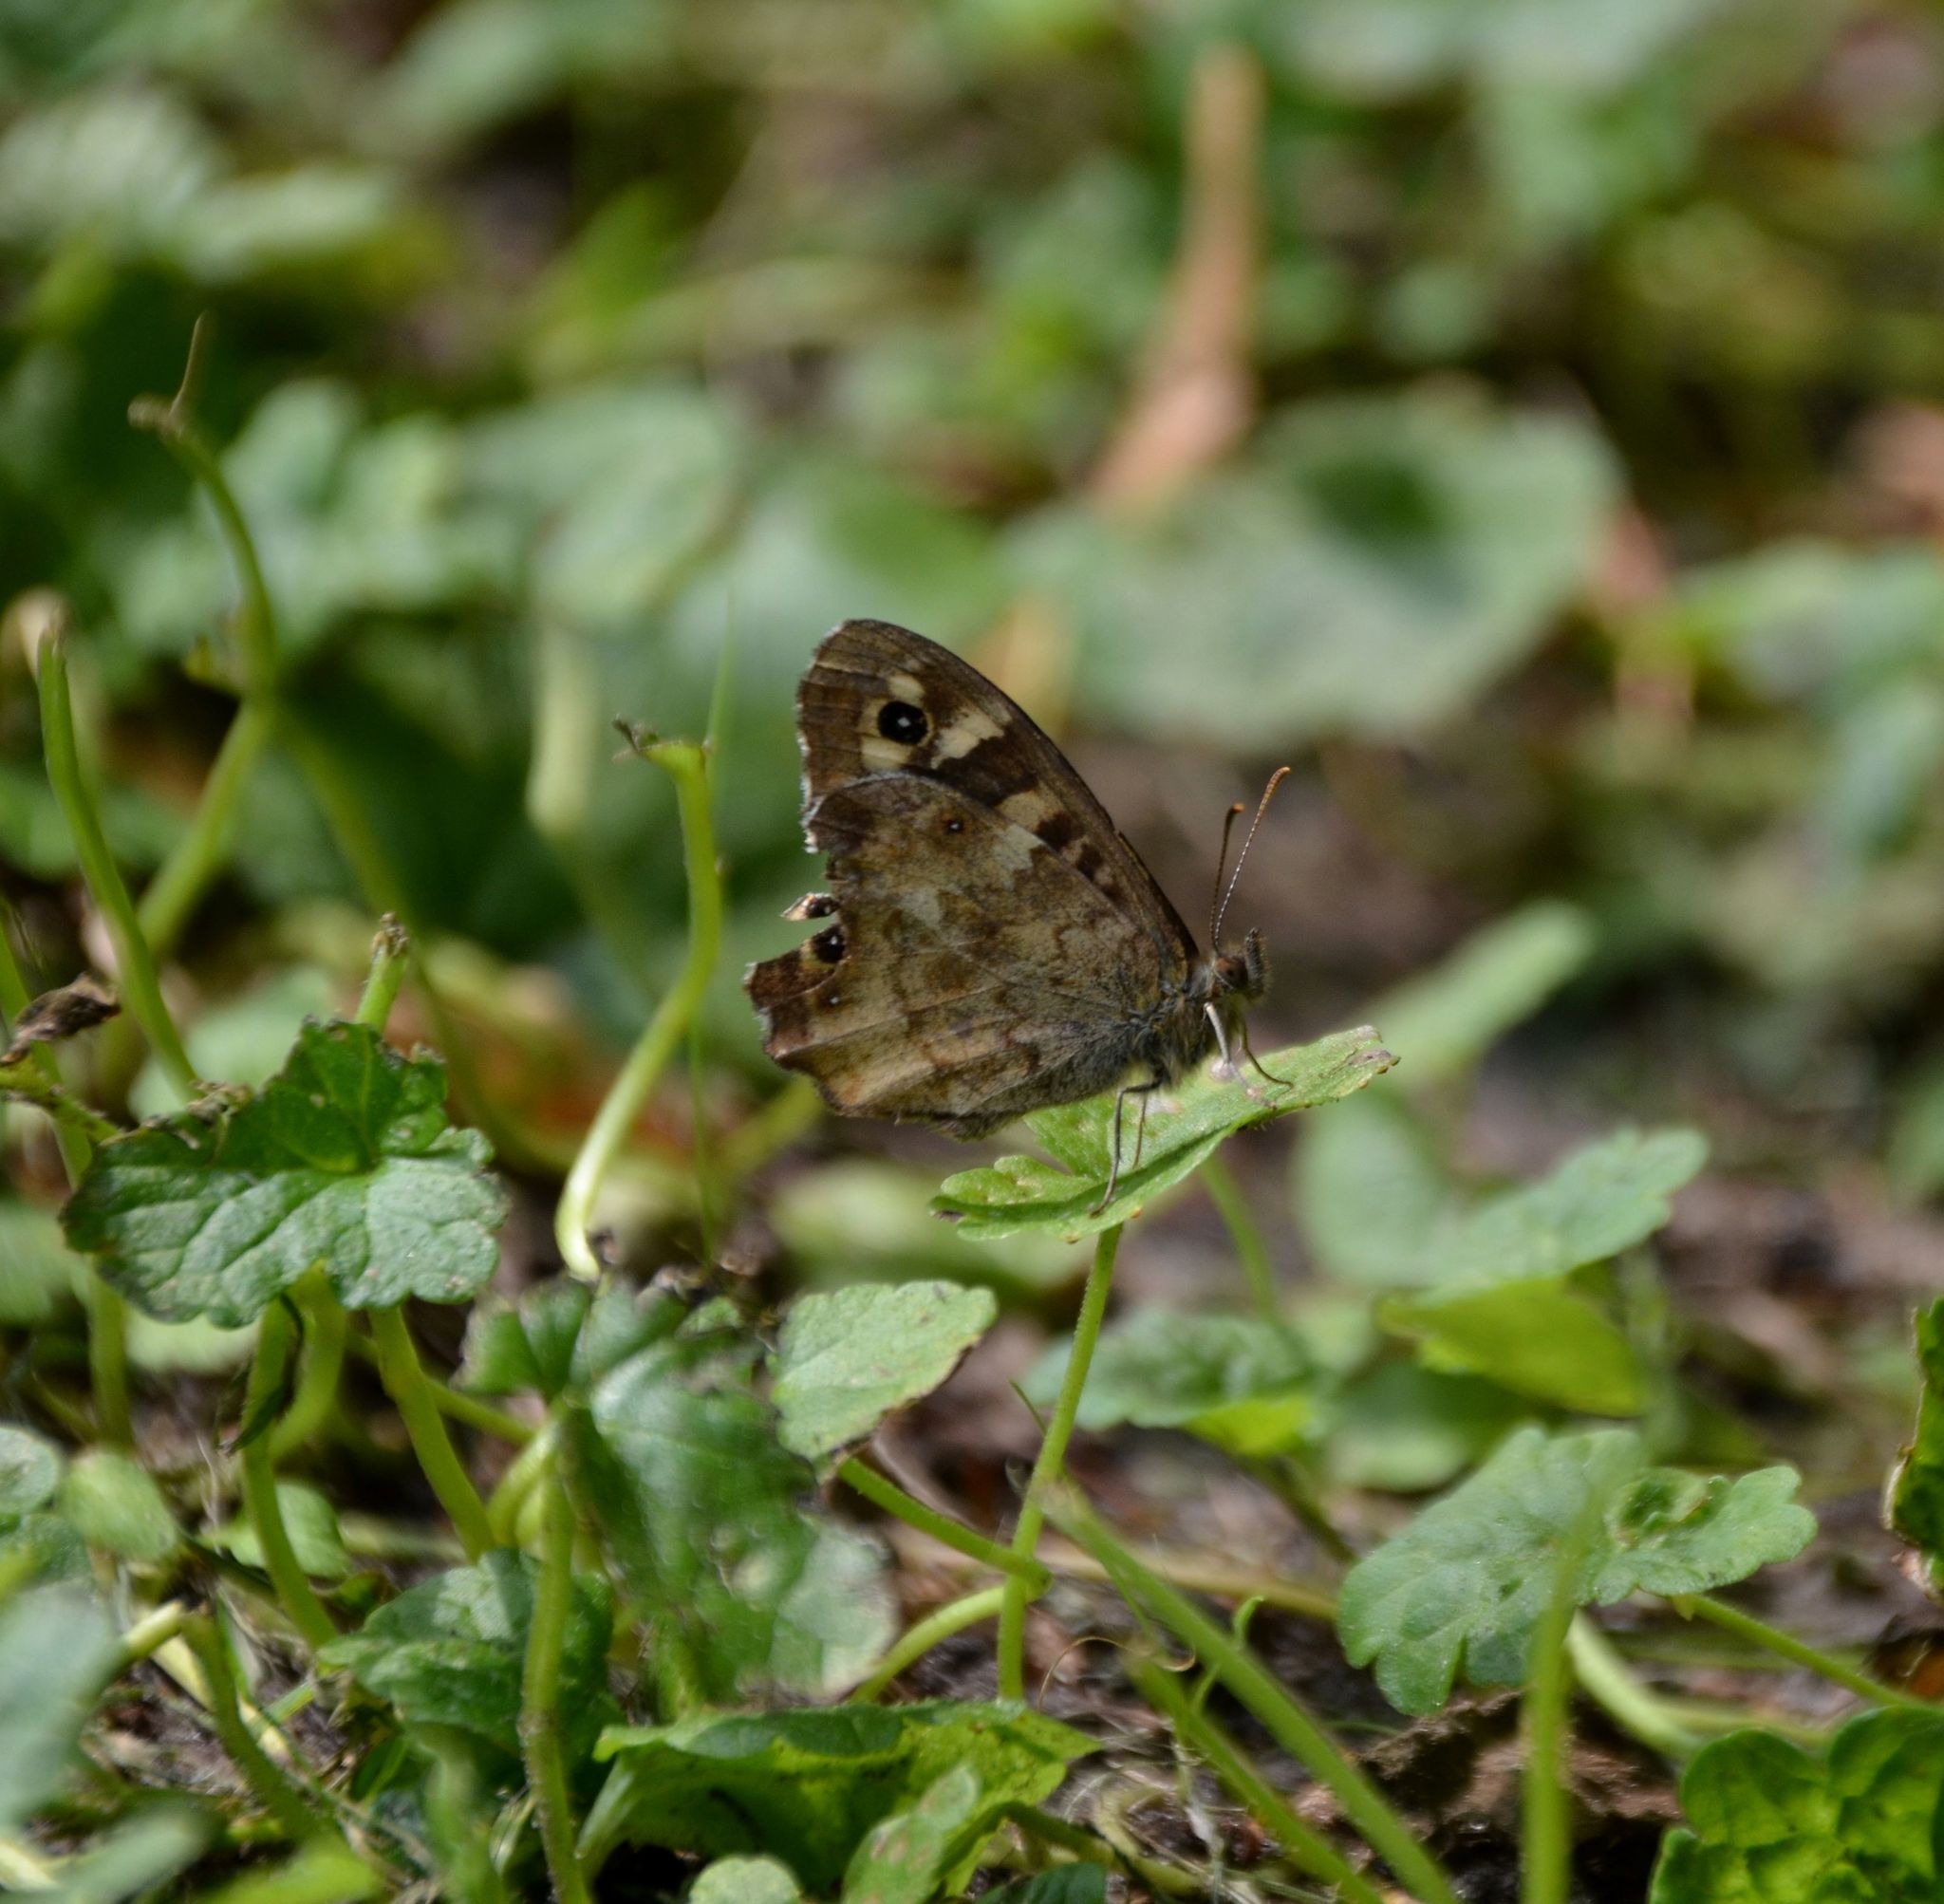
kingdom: Animalia
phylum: Arthropoda
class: Insecta
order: Lepidoptera
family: Nymphalidae
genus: Pararge
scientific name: Pararge aegeria
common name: Speckled wood
